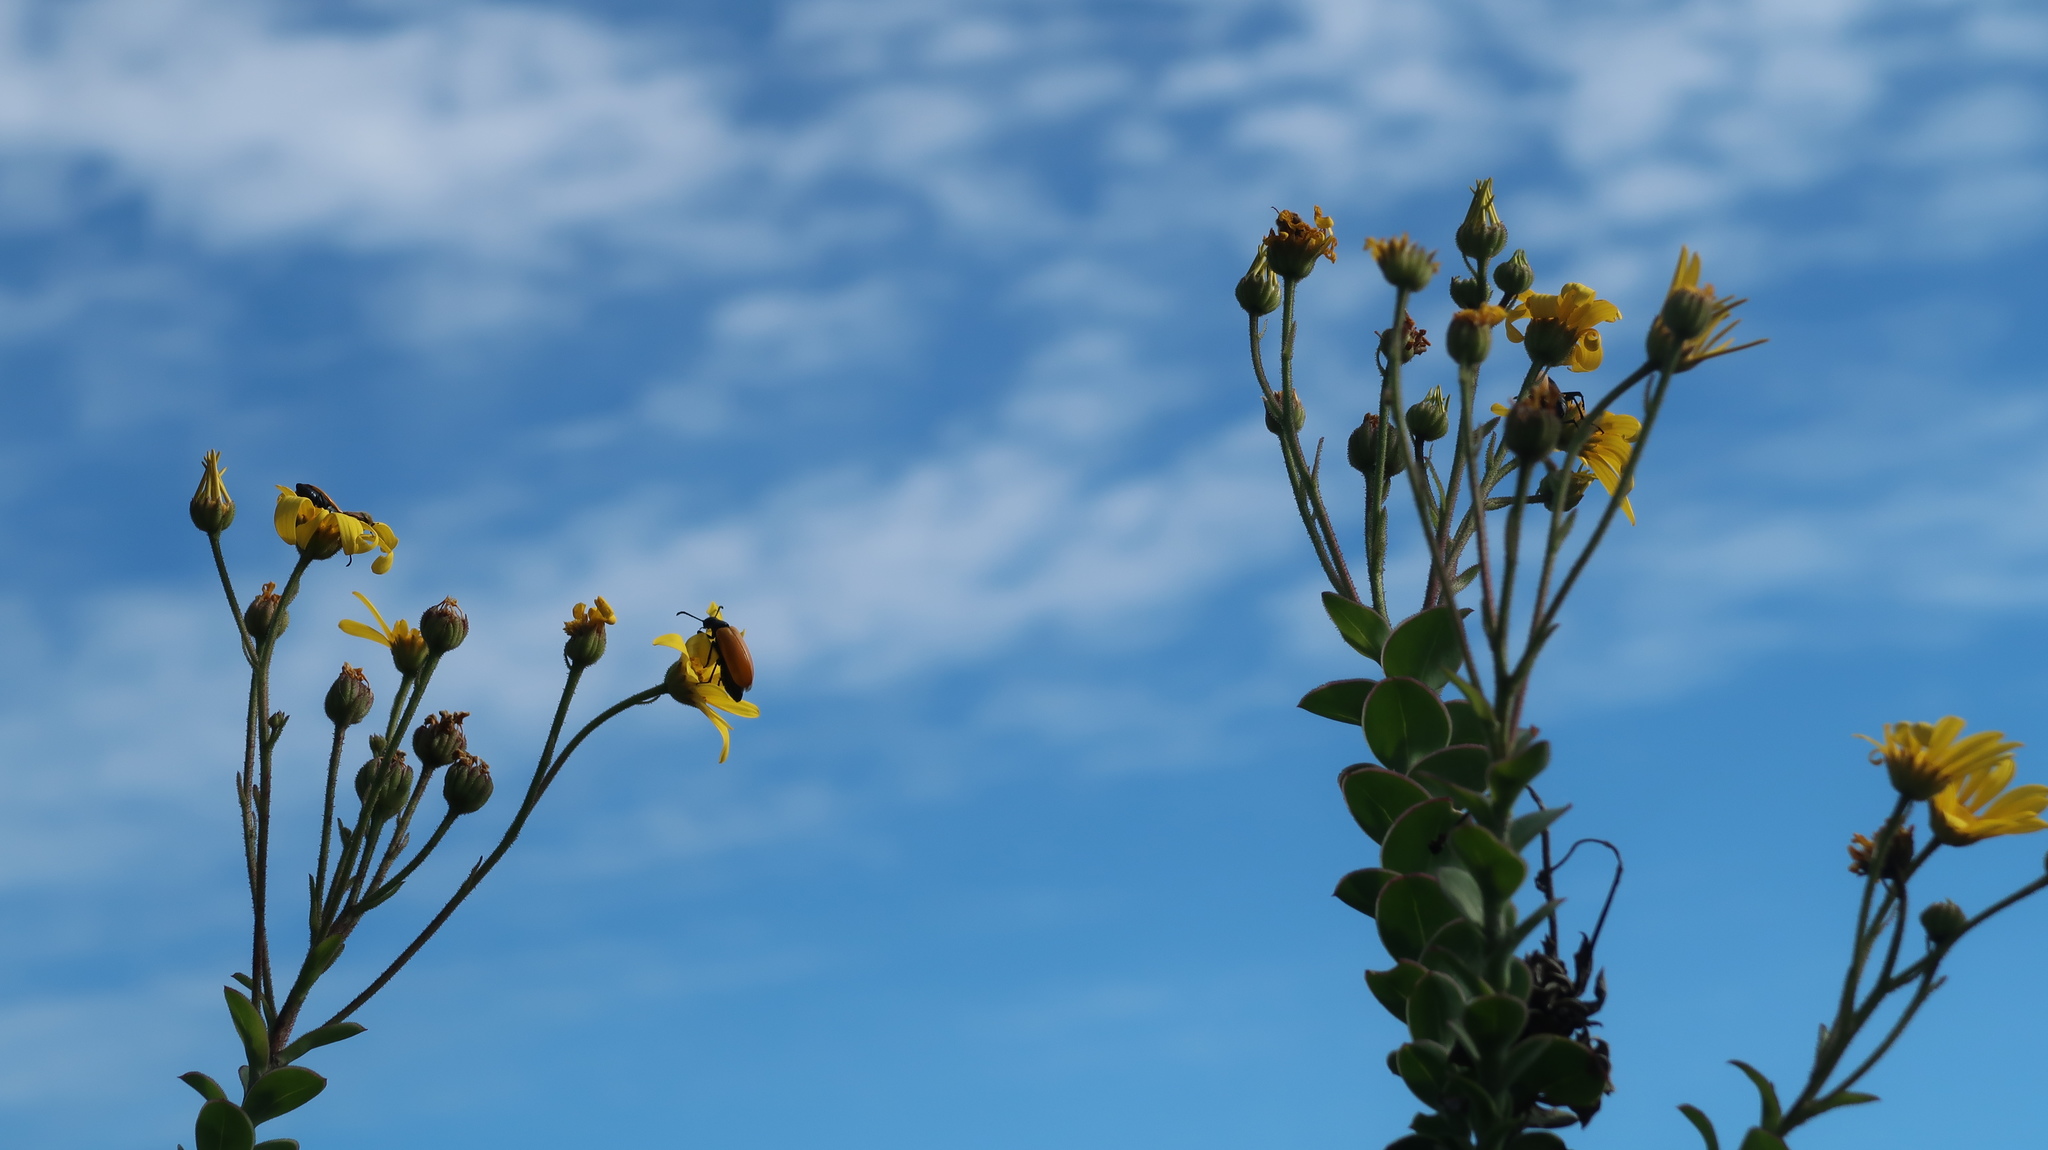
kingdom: Plantae
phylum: Tracheophyta
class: Magnoliopsida
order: Asterales
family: Asteraceae
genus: Osteospermum
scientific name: Osteospermum imbricatum
